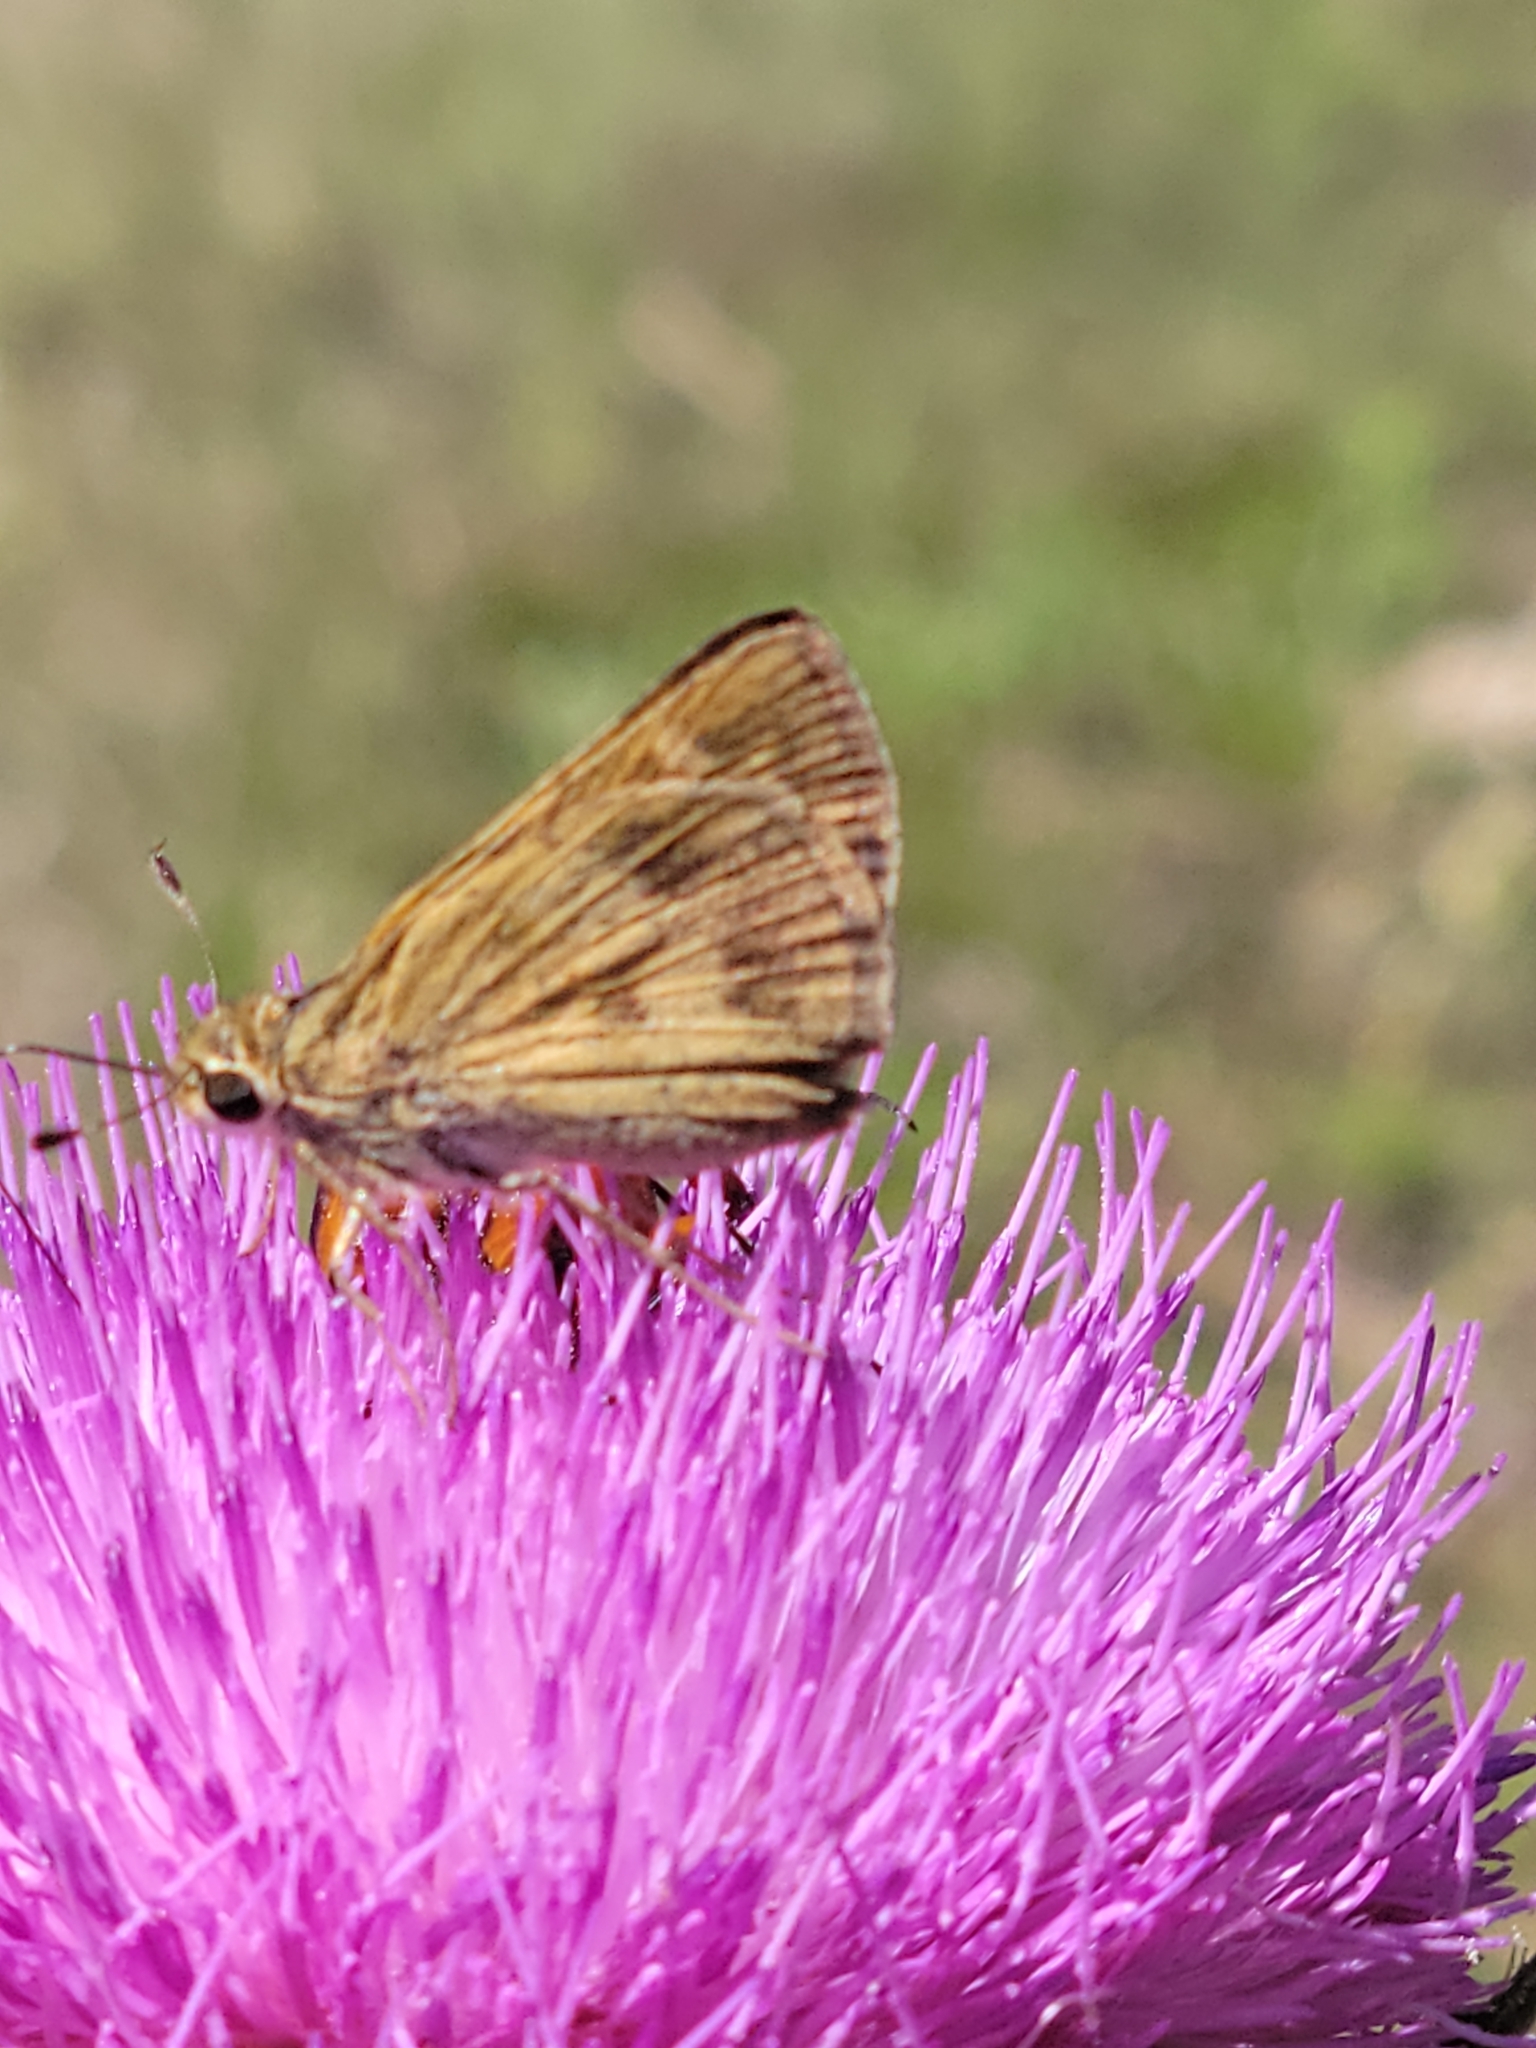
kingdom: Animalia
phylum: Arthropoda
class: Insecta
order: Lepidoptera
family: Hesperiidae
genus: Polites
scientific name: Polites vibex
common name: Whirlabout
